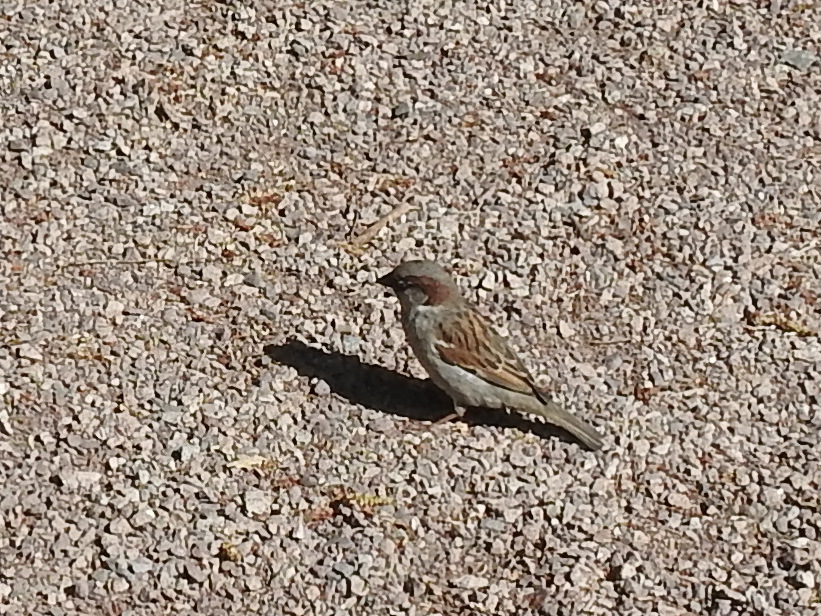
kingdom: Animalia
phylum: Chordata
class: Aves
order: Passeriformes
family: Passeridae
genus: Passer
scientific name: Passer domesticus
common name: House sparrow
